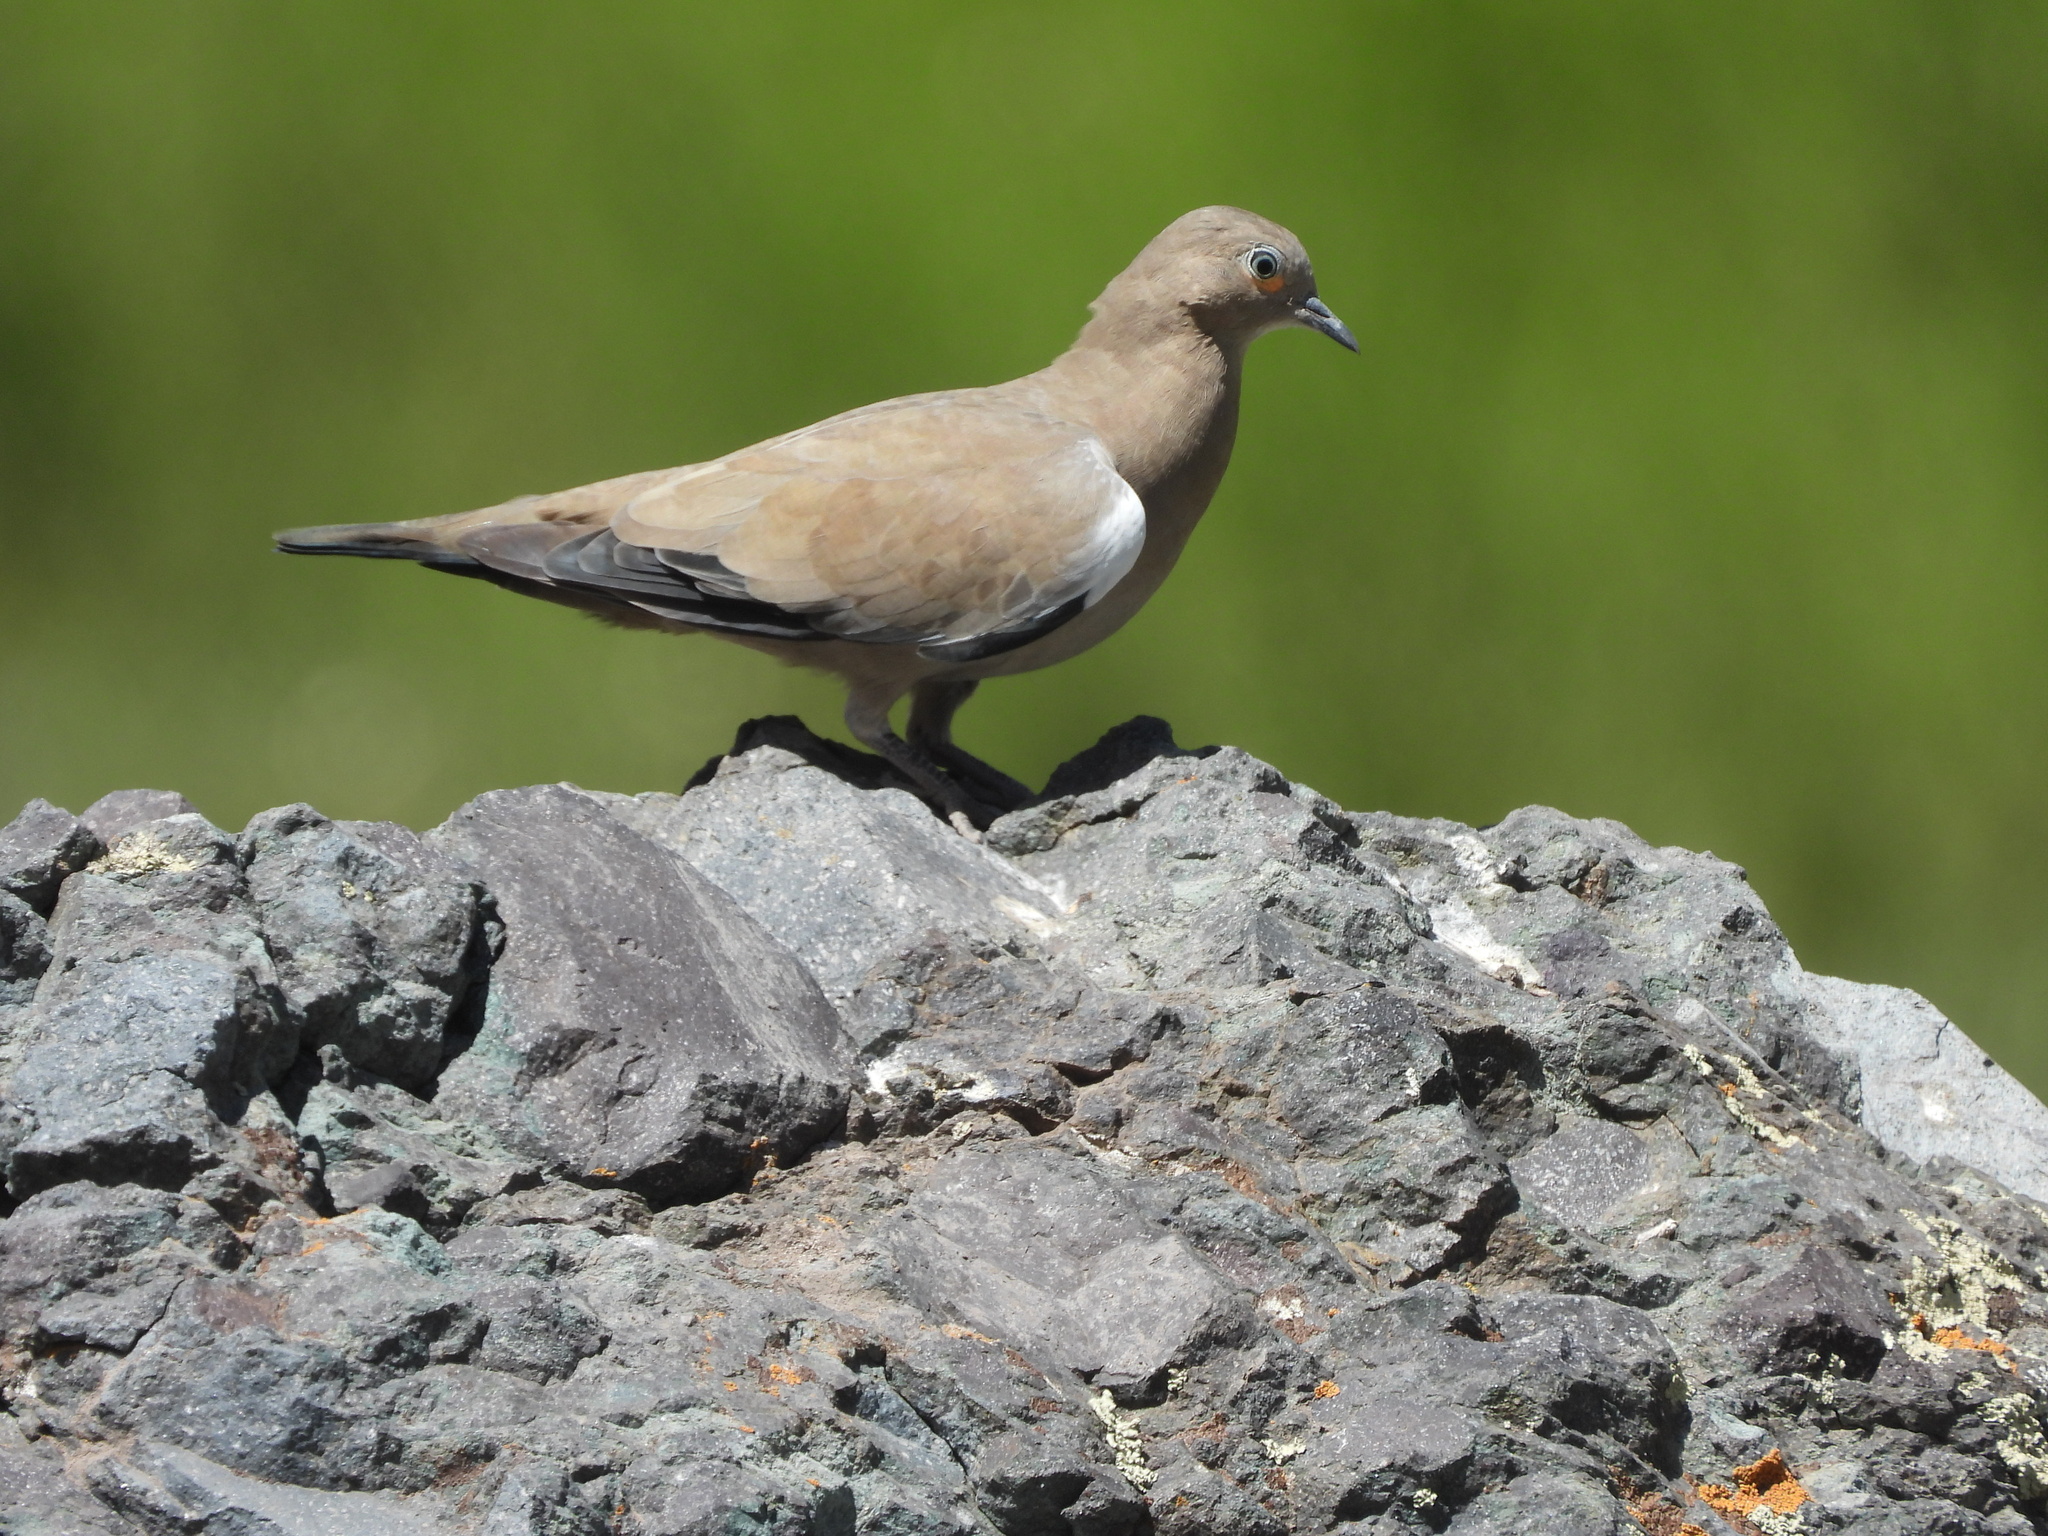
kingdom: Animalia
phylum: Chordata
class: Aves
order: Columbiformes
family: Columbidae
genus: Metriopelia
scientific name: Metriopelia melanoptera
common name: Black-winged ground dove
